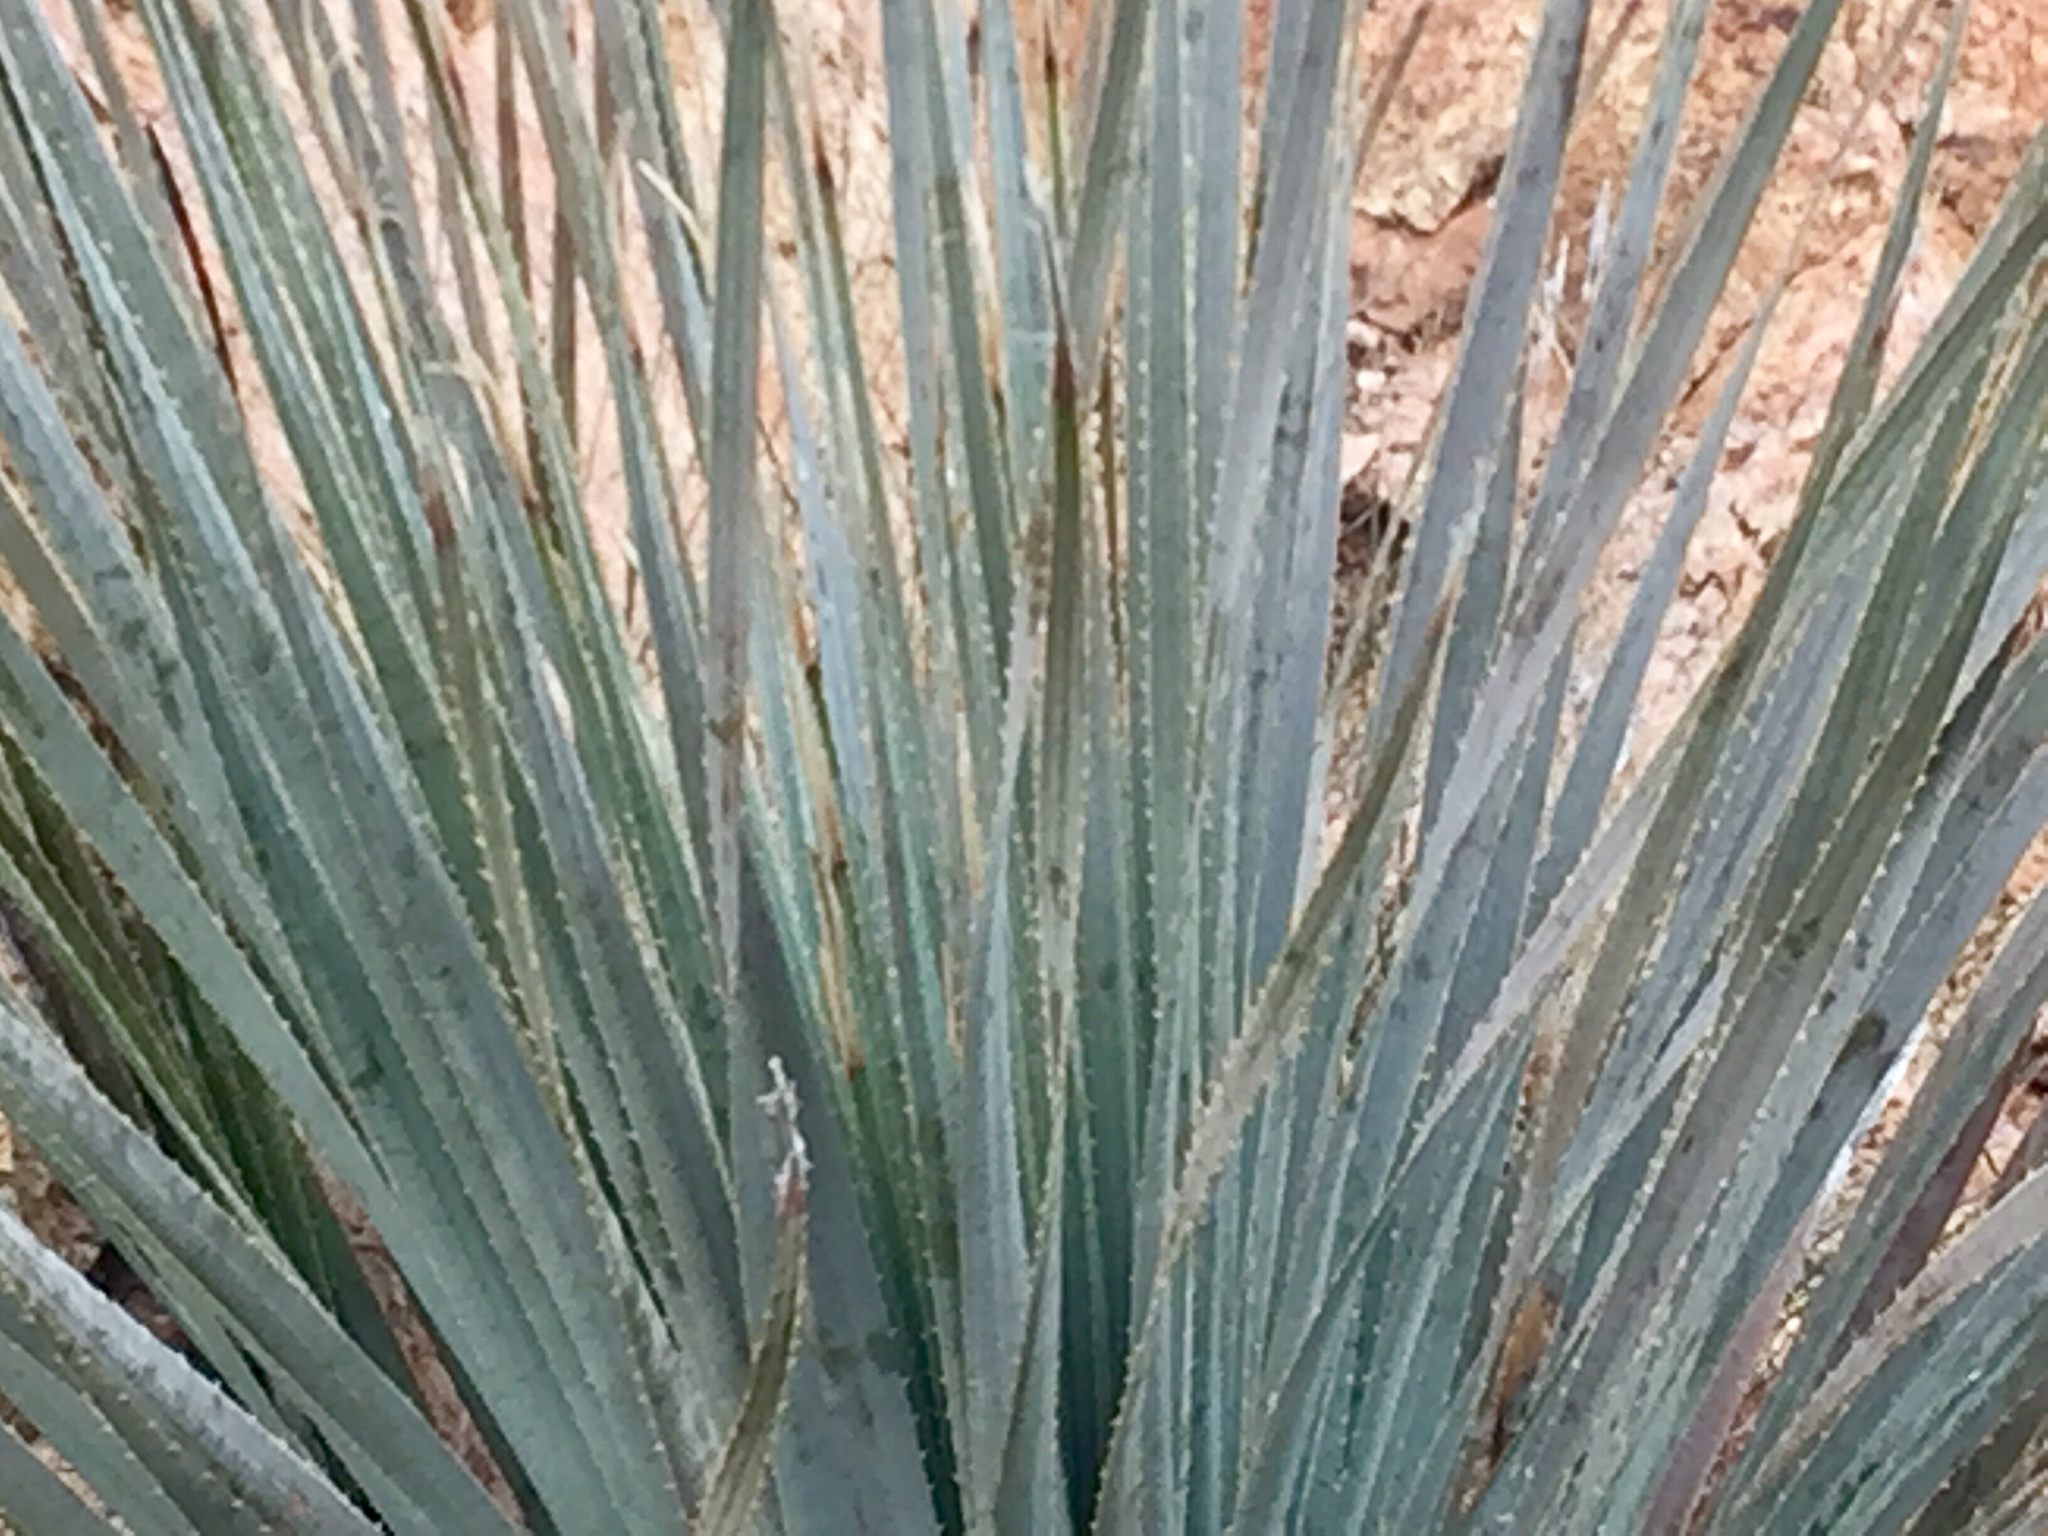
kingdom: Plantae
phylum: Tracheophyta
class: Liliopsida
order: Asparagales
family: Asparagaceae
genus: Dasylirion
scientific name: Dasylirion wheeleri
